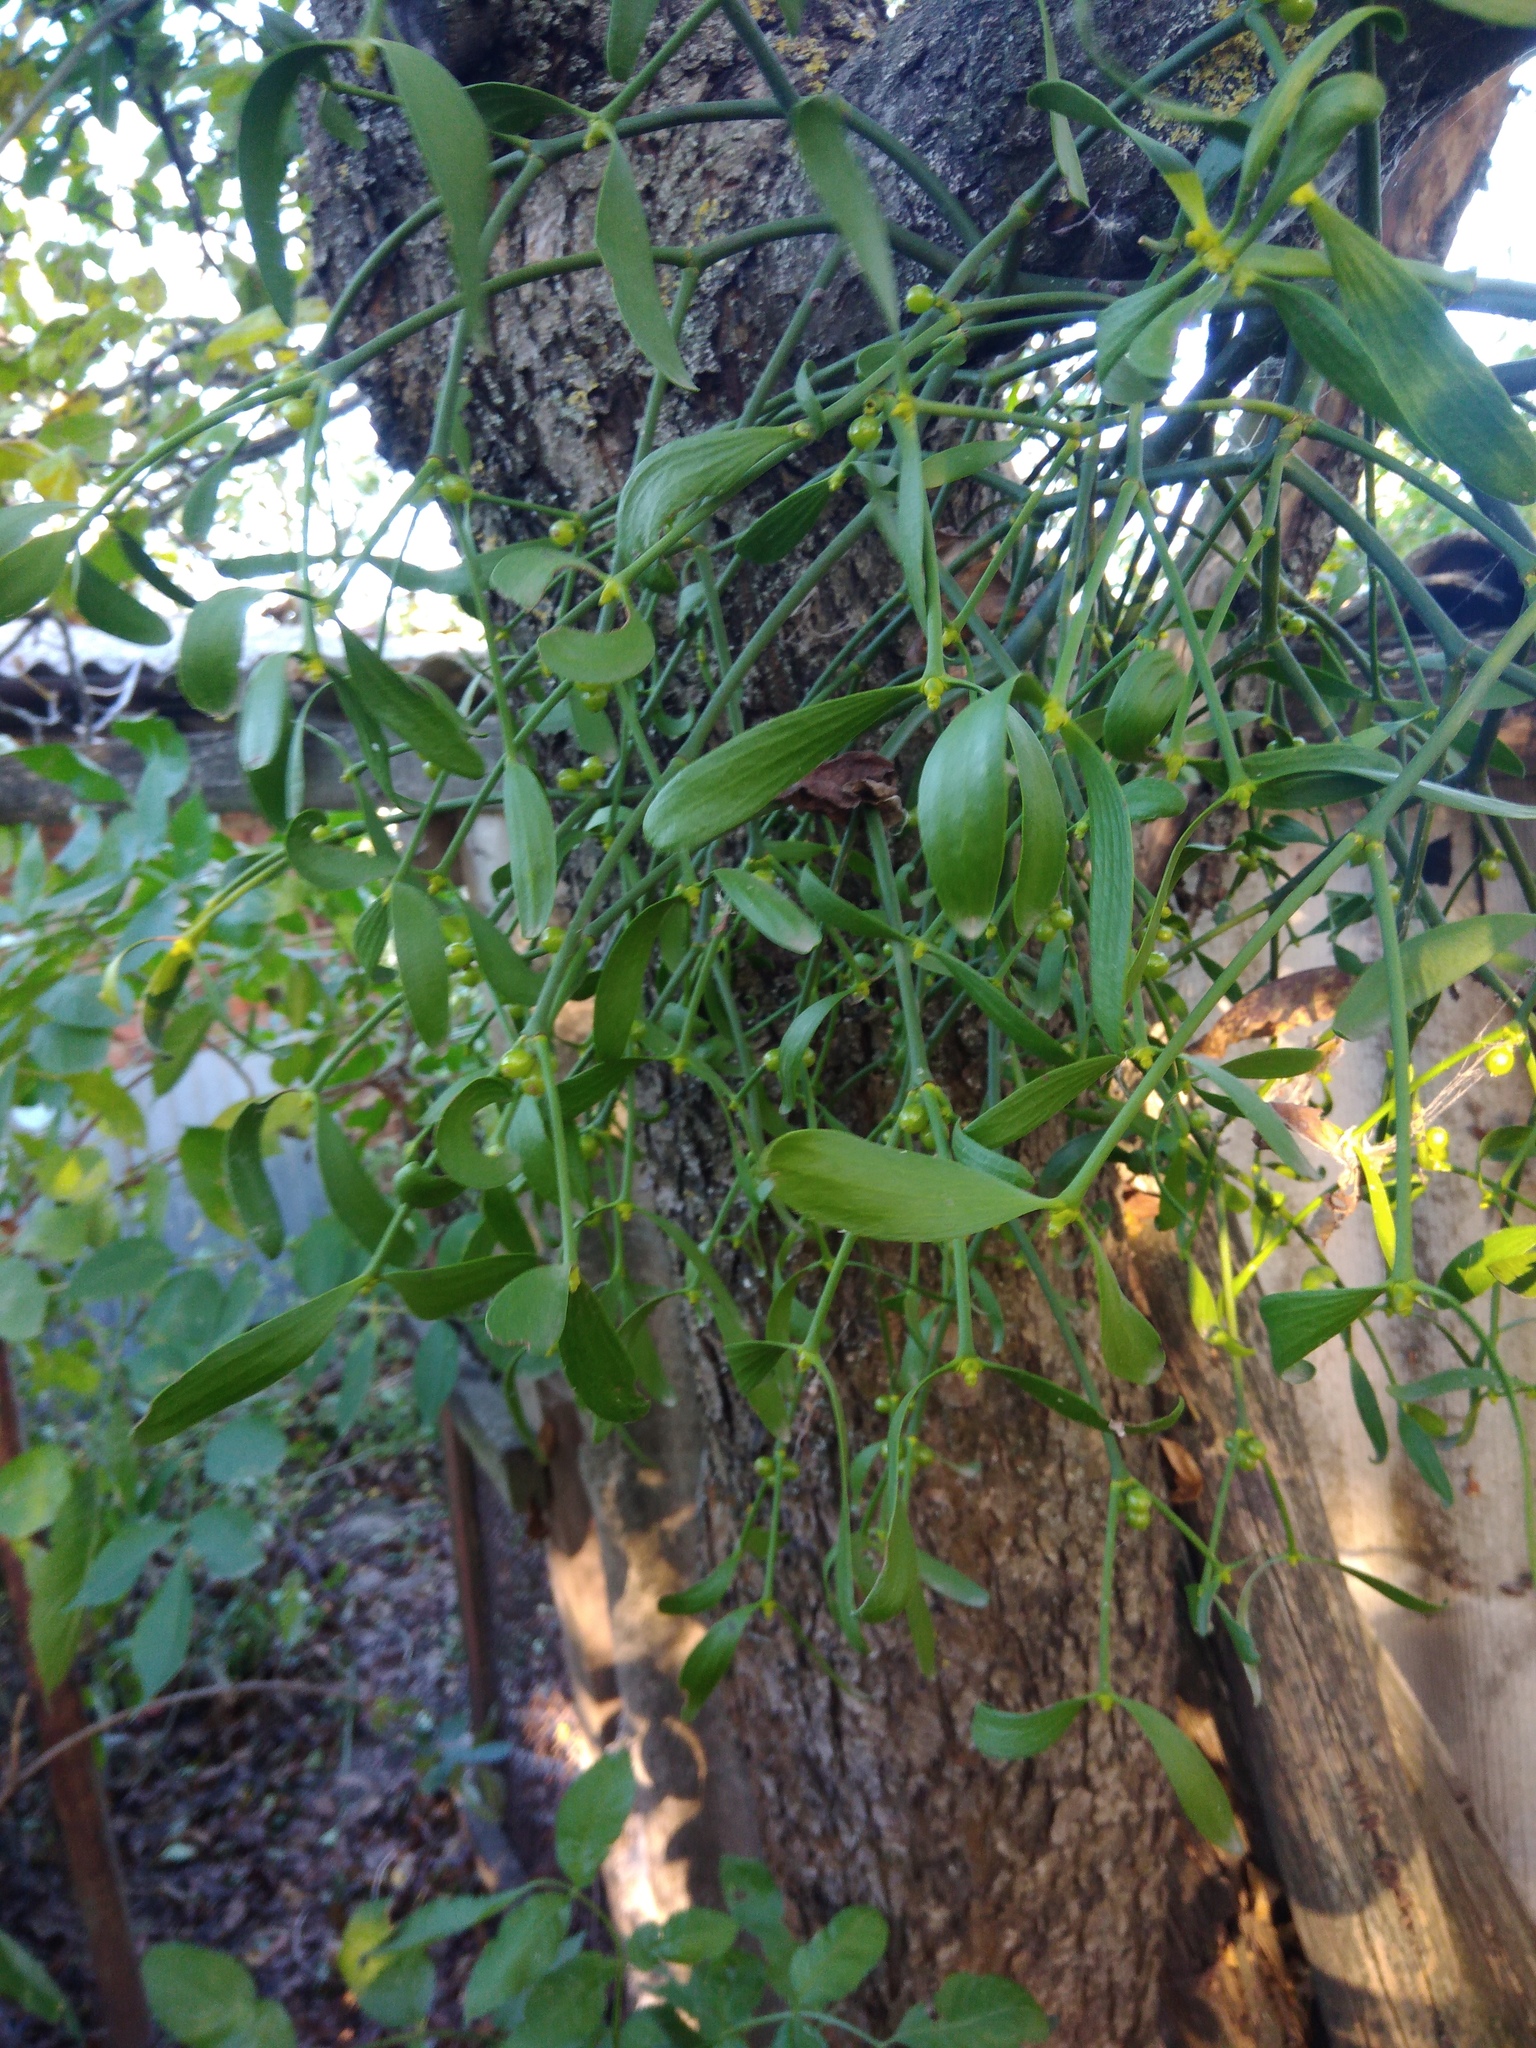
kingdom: Plantae
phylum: Tracheophyta
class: Magnoliopsida
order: Santalales
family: Viscaceae
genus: Viscum
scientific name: Viscum album
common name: Mistletoe
